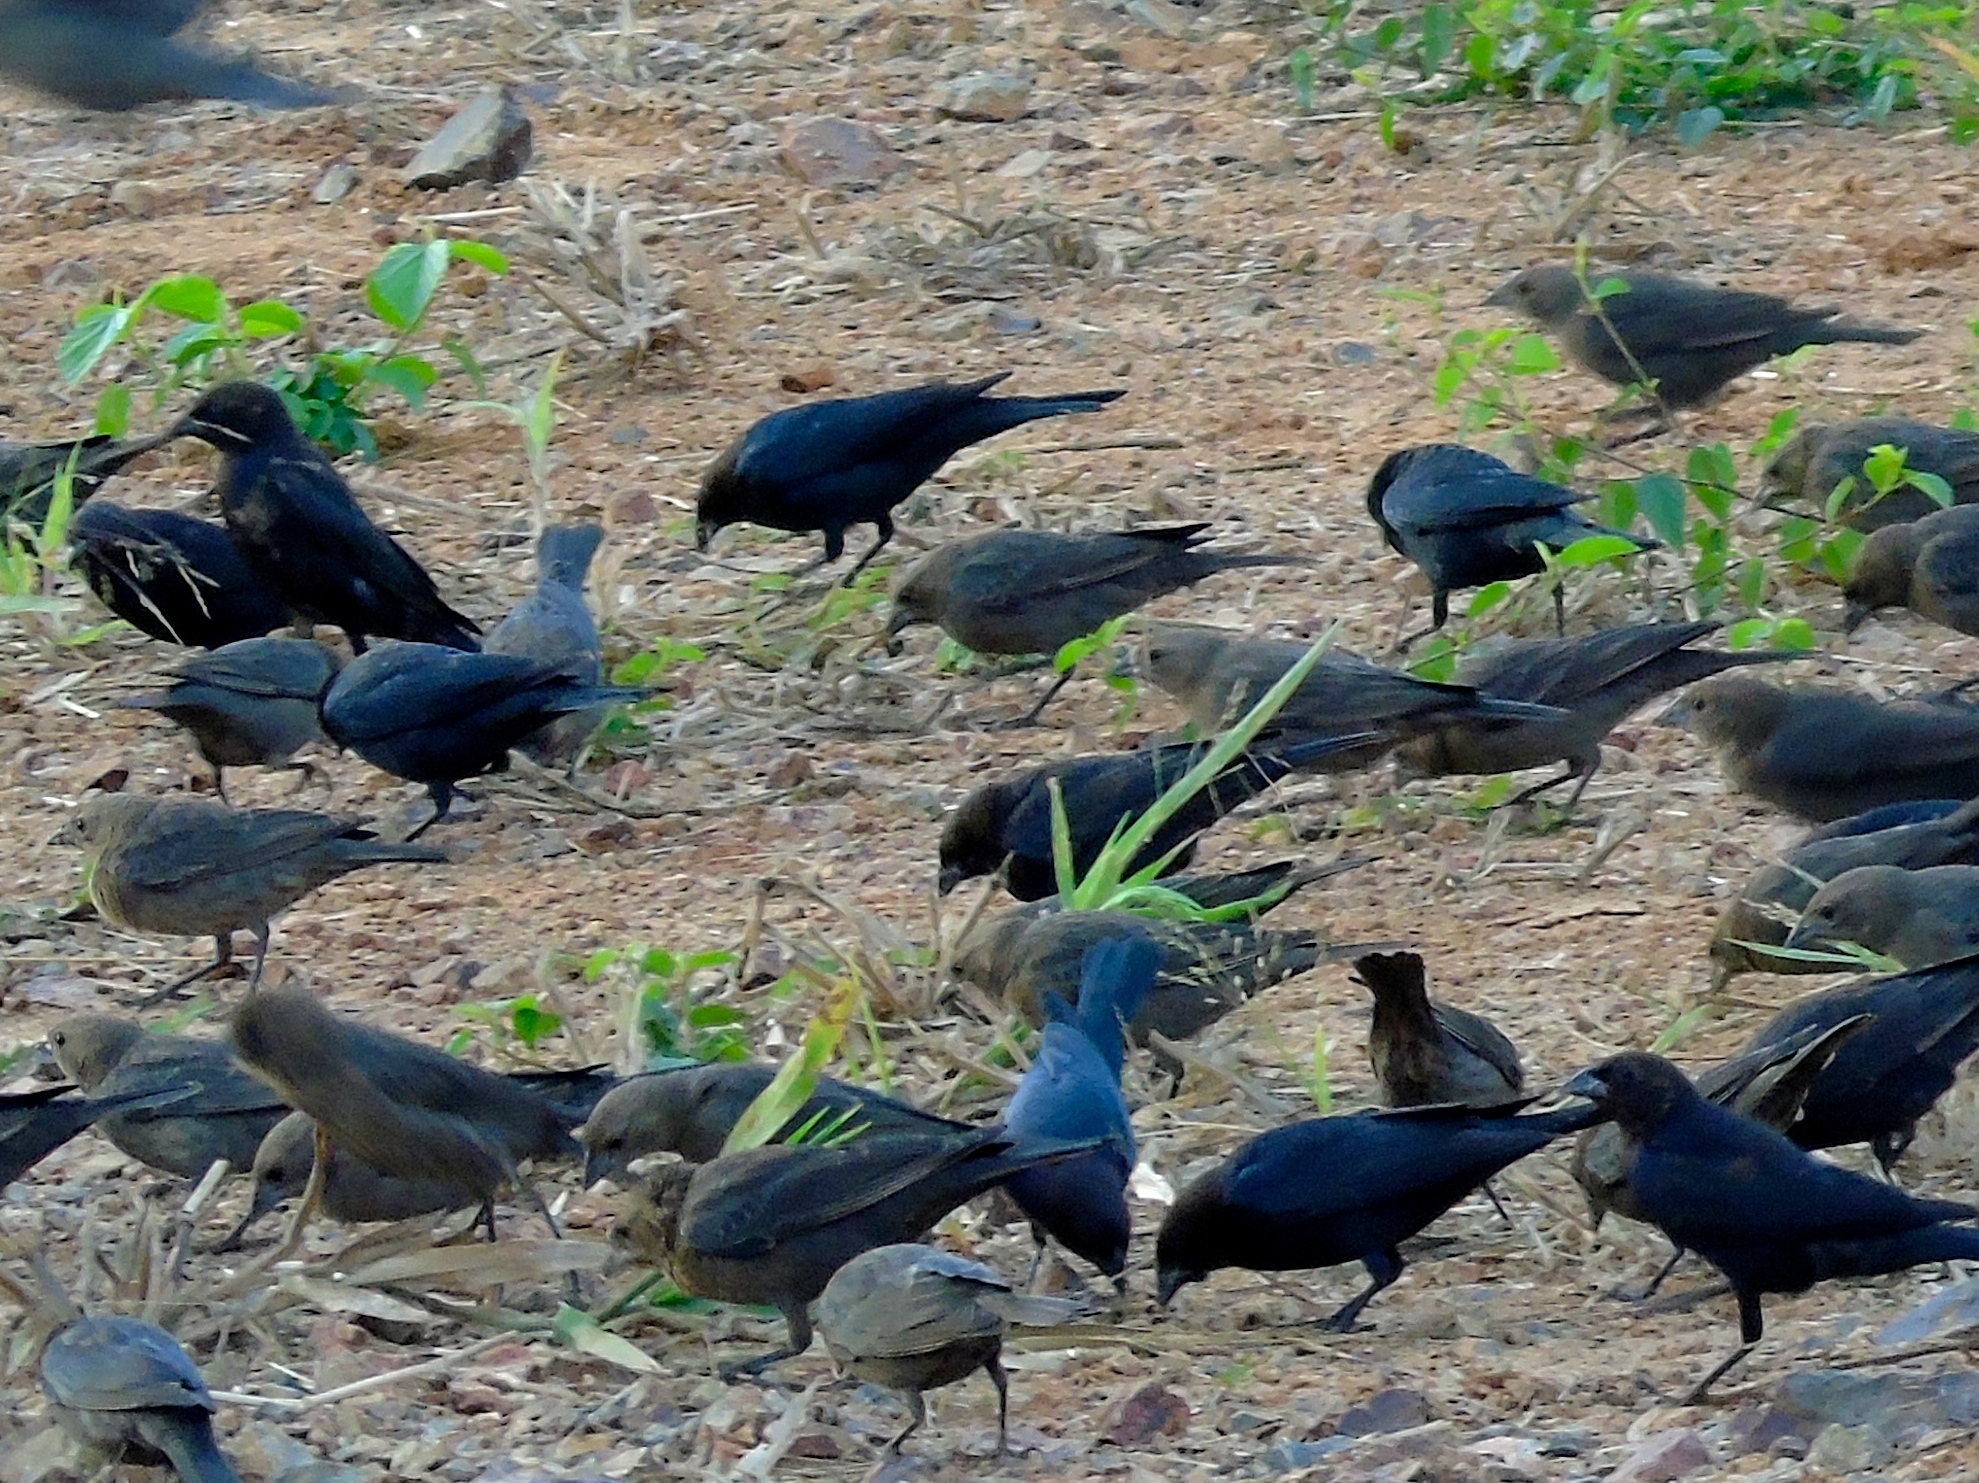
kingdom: Animalia
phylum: Chordata
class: Aves
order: Passeriformes
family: Icteridae
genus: Molothrus
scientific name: Molothrus ater
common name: Brown-headed cowbird
